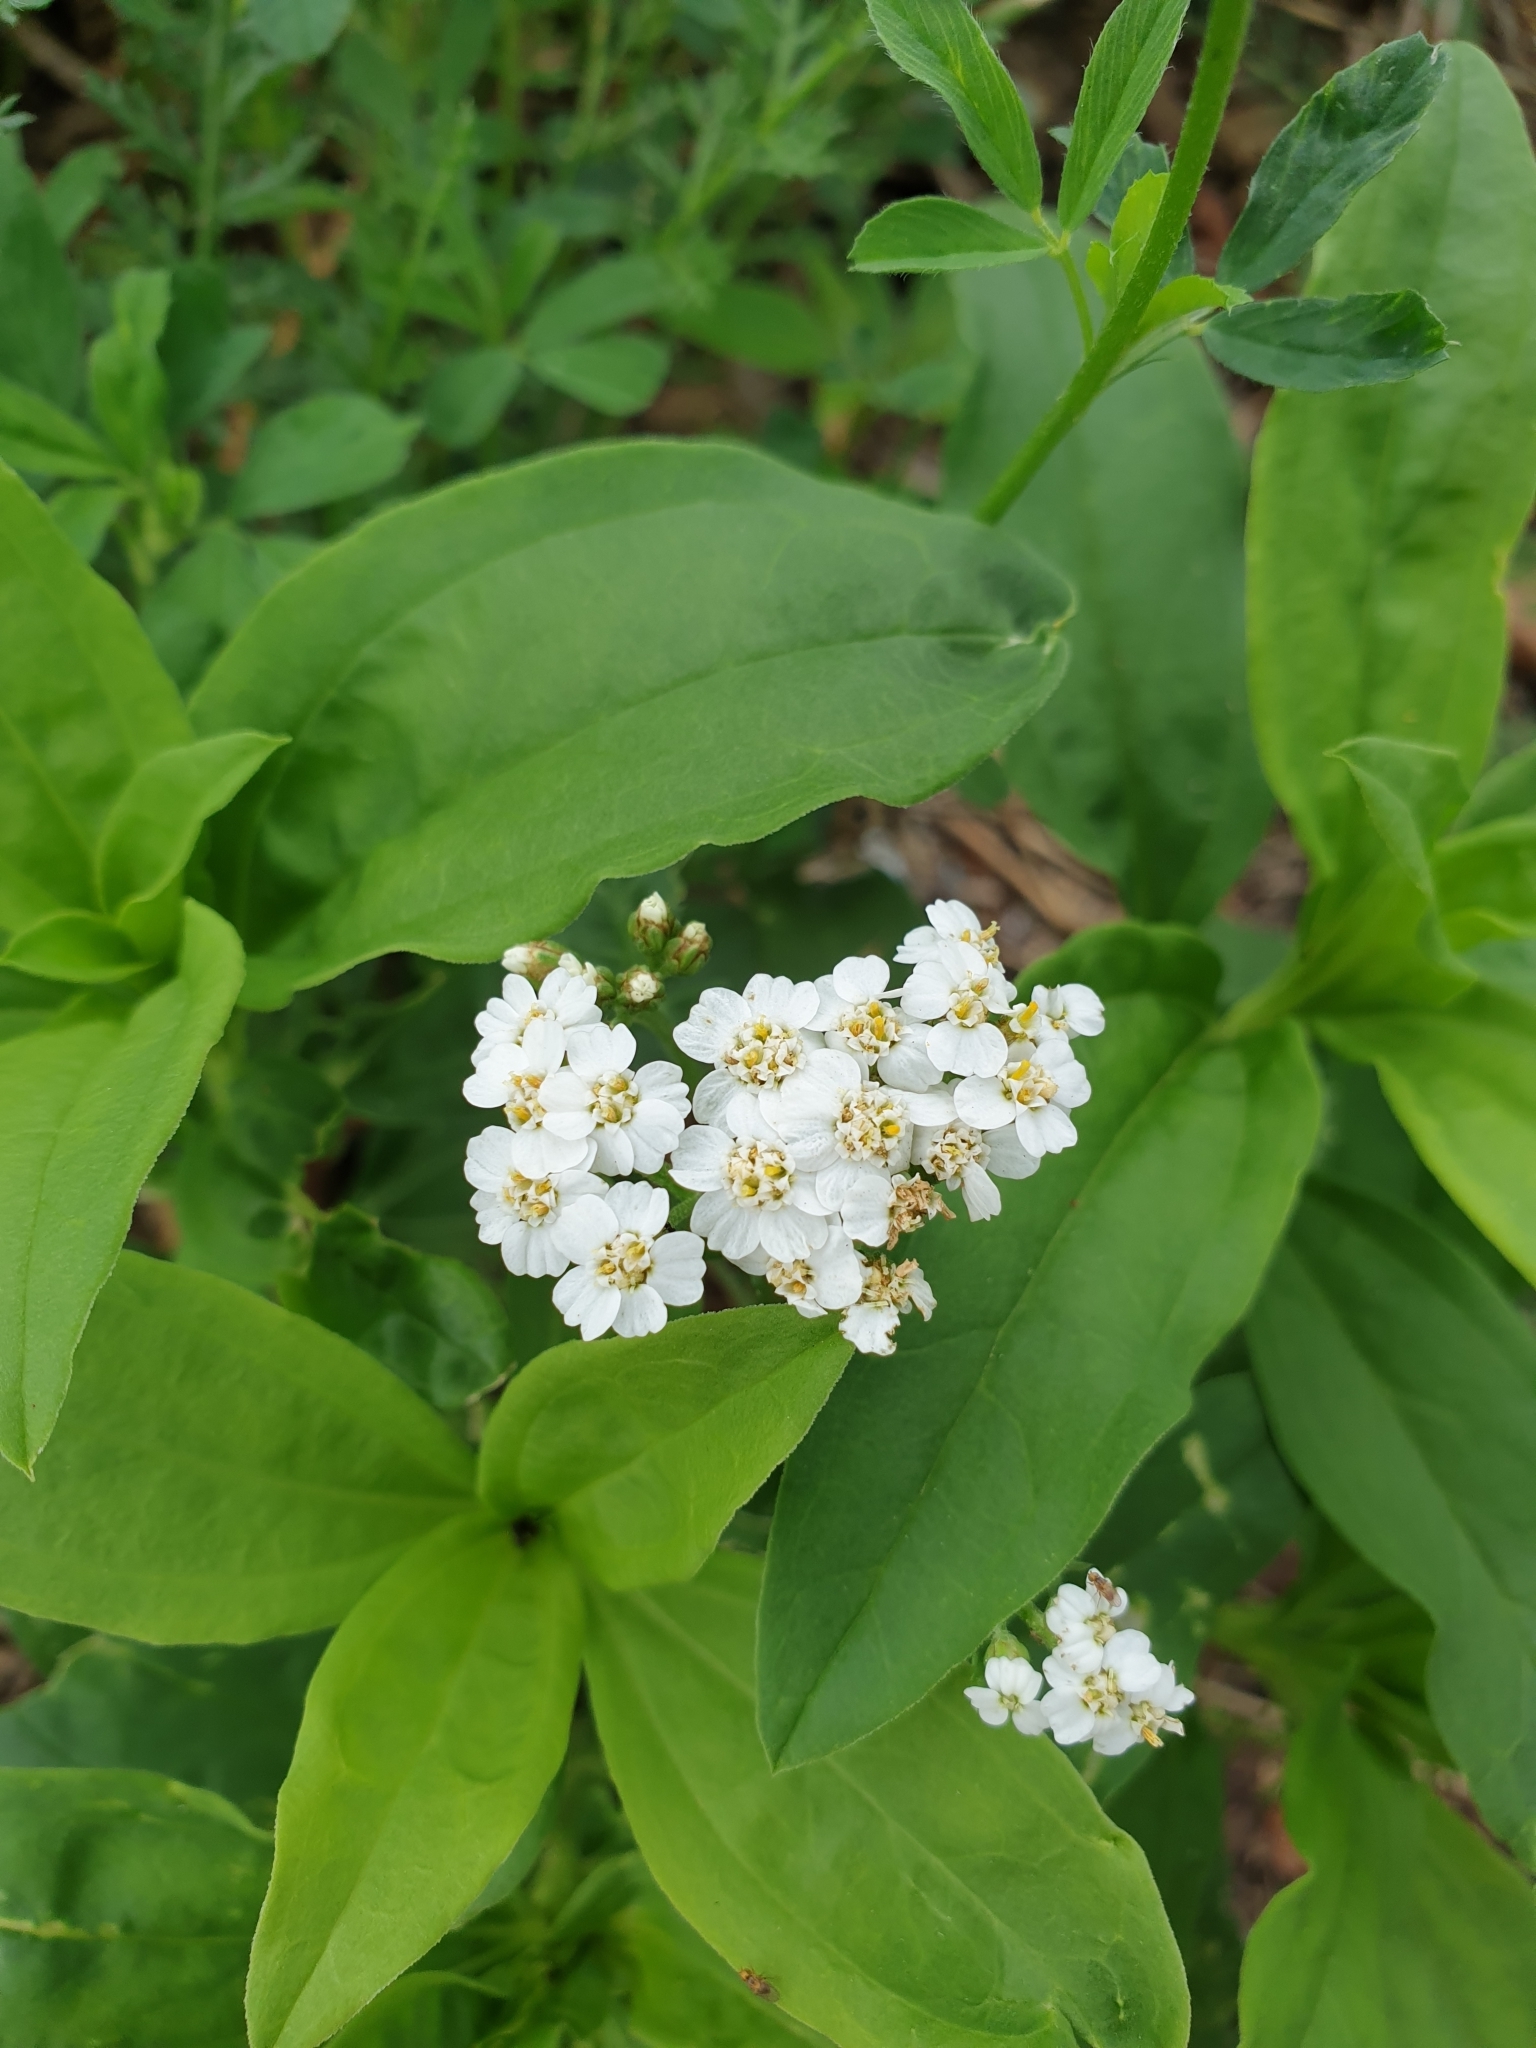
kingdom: Plantae
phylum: Tracheophyta
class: Magnoliopsida
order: Asterales
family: Asteraceae
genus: Achillea
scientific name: Achillea millefolium
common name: Yarrow
